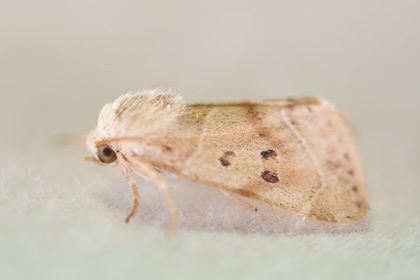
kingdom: Animalia
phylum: Arthropoda
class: Insecta
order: Lepidoptera
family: Noctuidae
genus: Cosmia
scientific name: Cosmia calami
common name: American dun-bar moth
